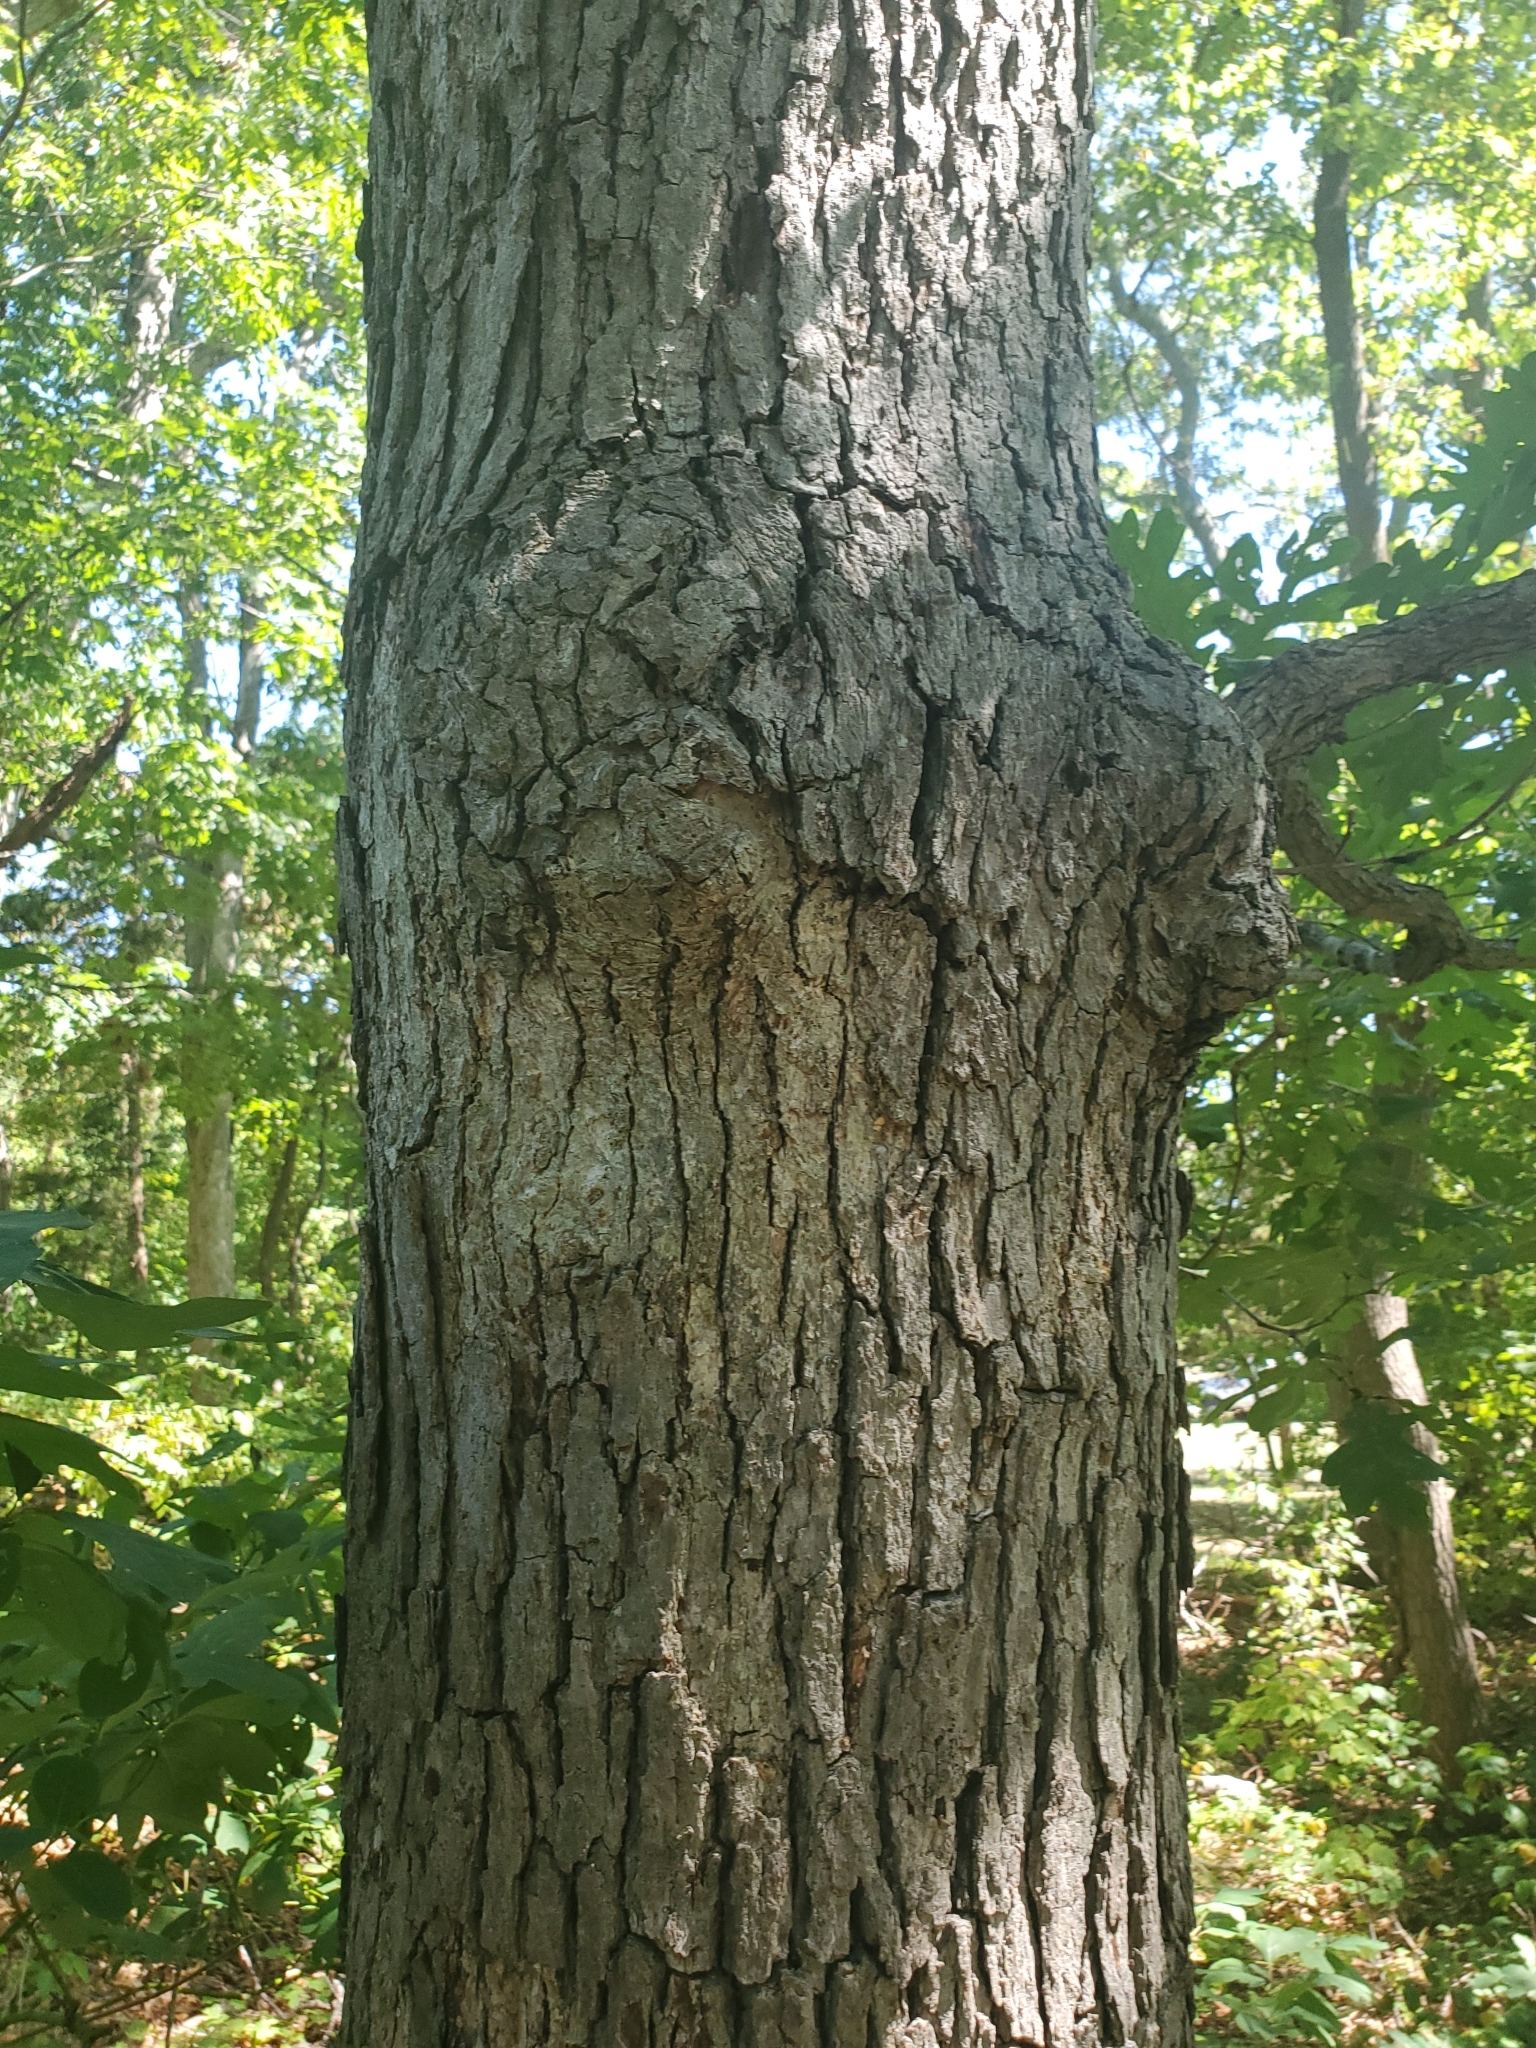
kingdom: Plantae
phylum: Tracheophyta
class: Magnoliopsida
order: Fagales
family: Fagaceae
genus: Quercus
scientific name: Quercus alba
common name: White oak
